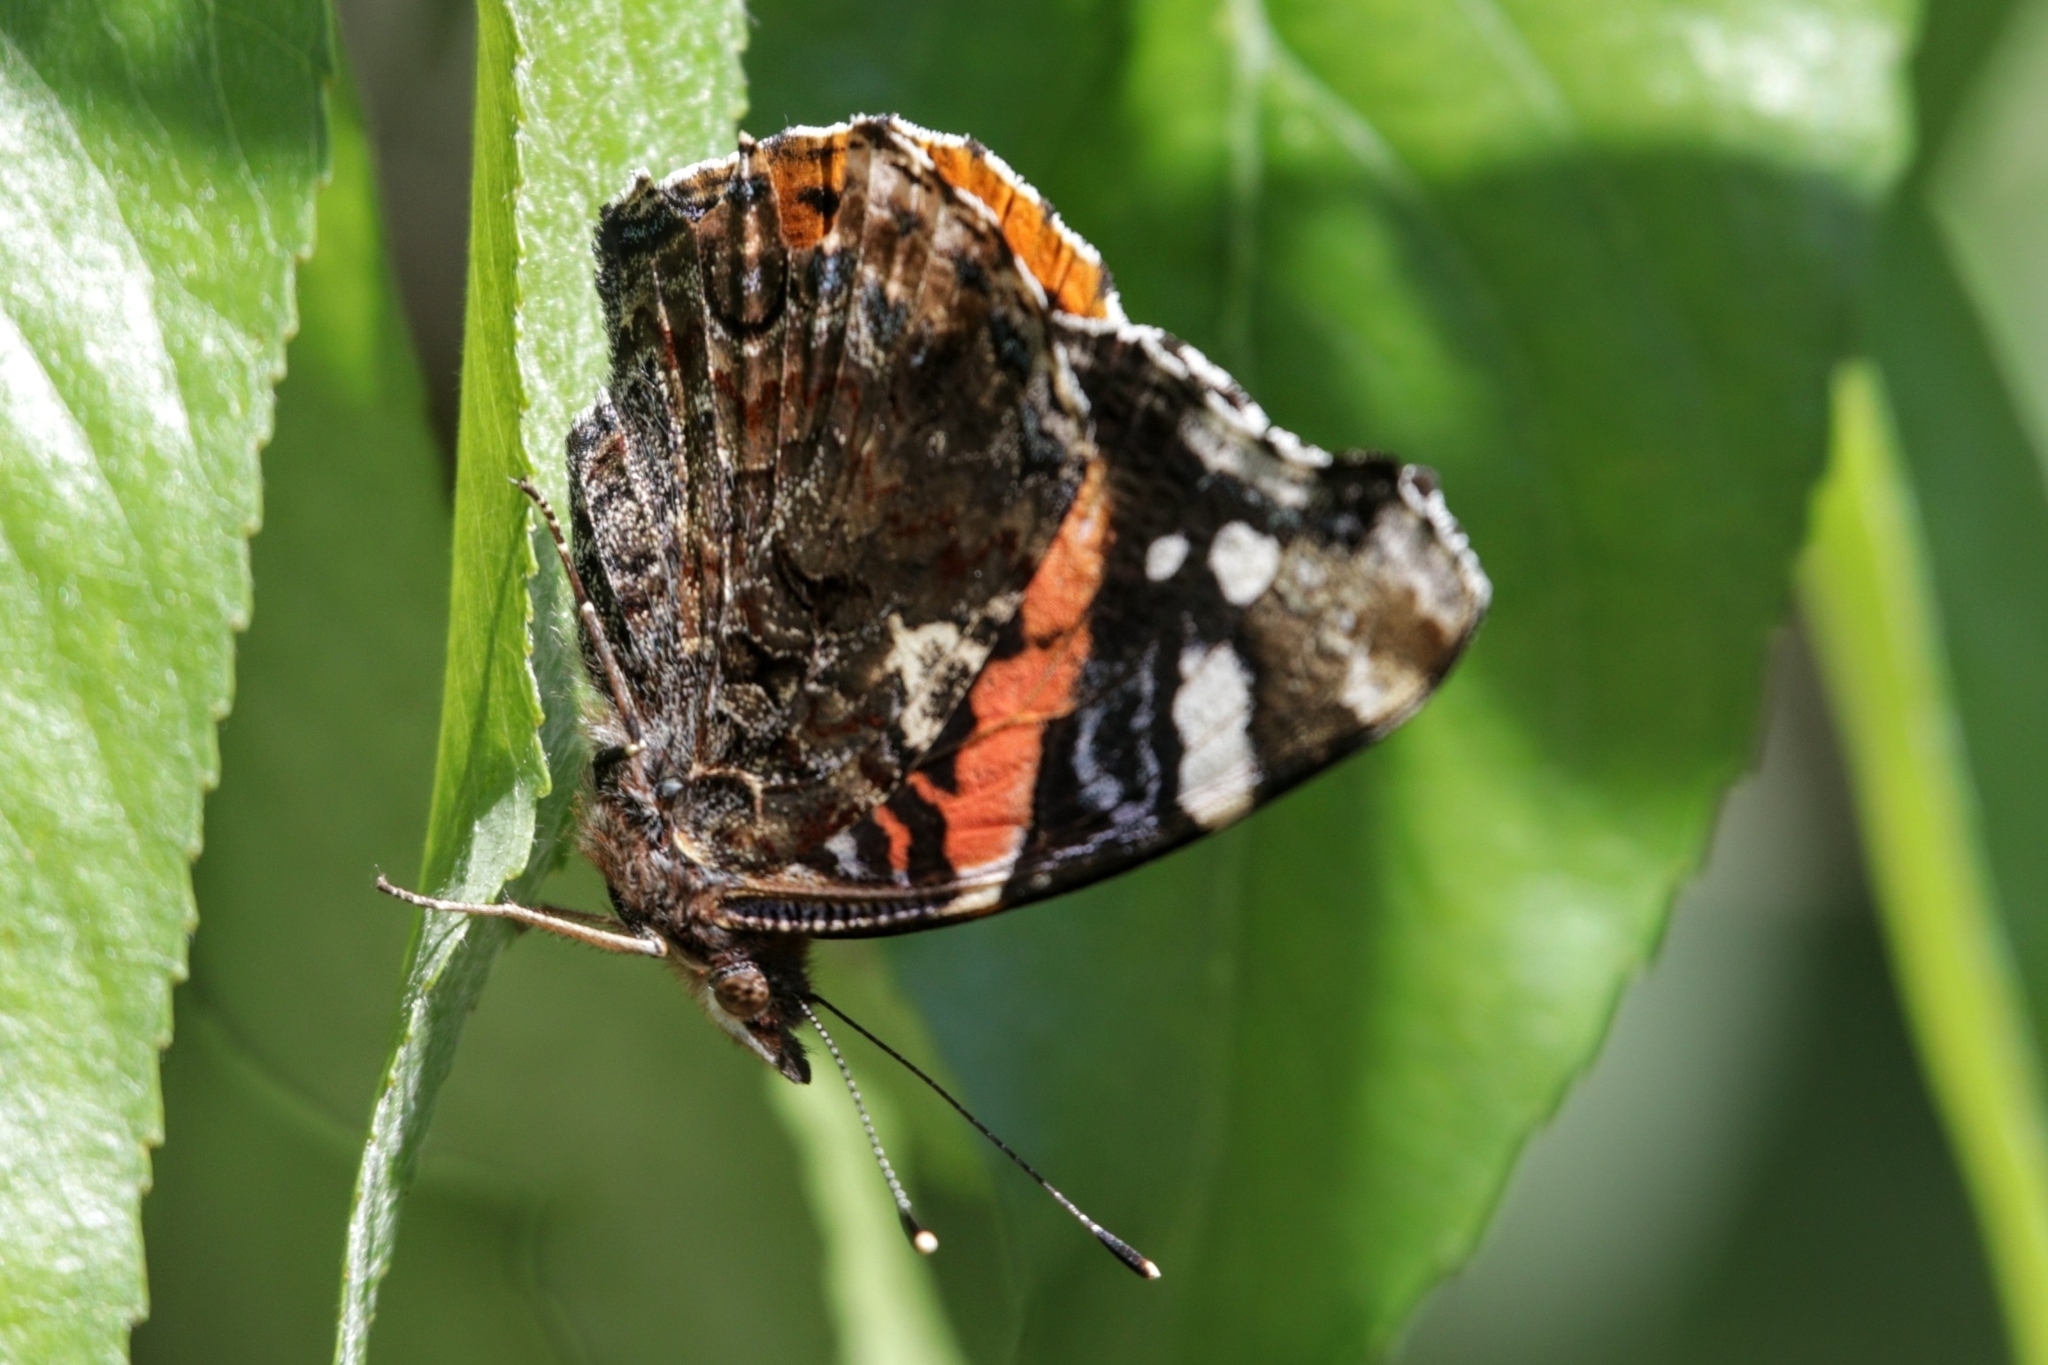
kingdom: Animalia
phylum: Arthropoda
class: Insecta
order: Lepidoptera
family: Nymphalidae
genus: Vanessa
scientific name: Vanessa atalanta
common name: Red admiral
